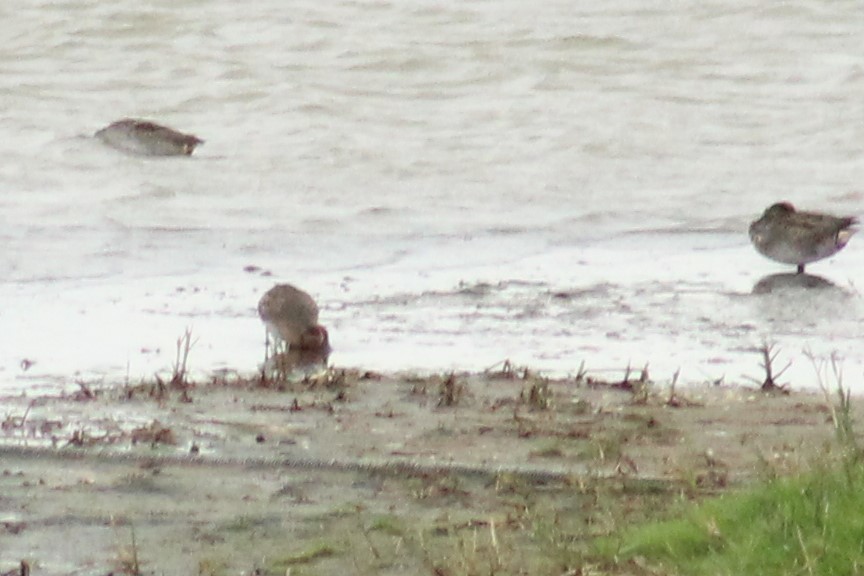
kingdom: Animalia
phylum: Chordata
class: Aves
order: Anseriformes
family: Anatidae
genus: Anas
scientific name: Anas crecca
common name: Eurasian teal
